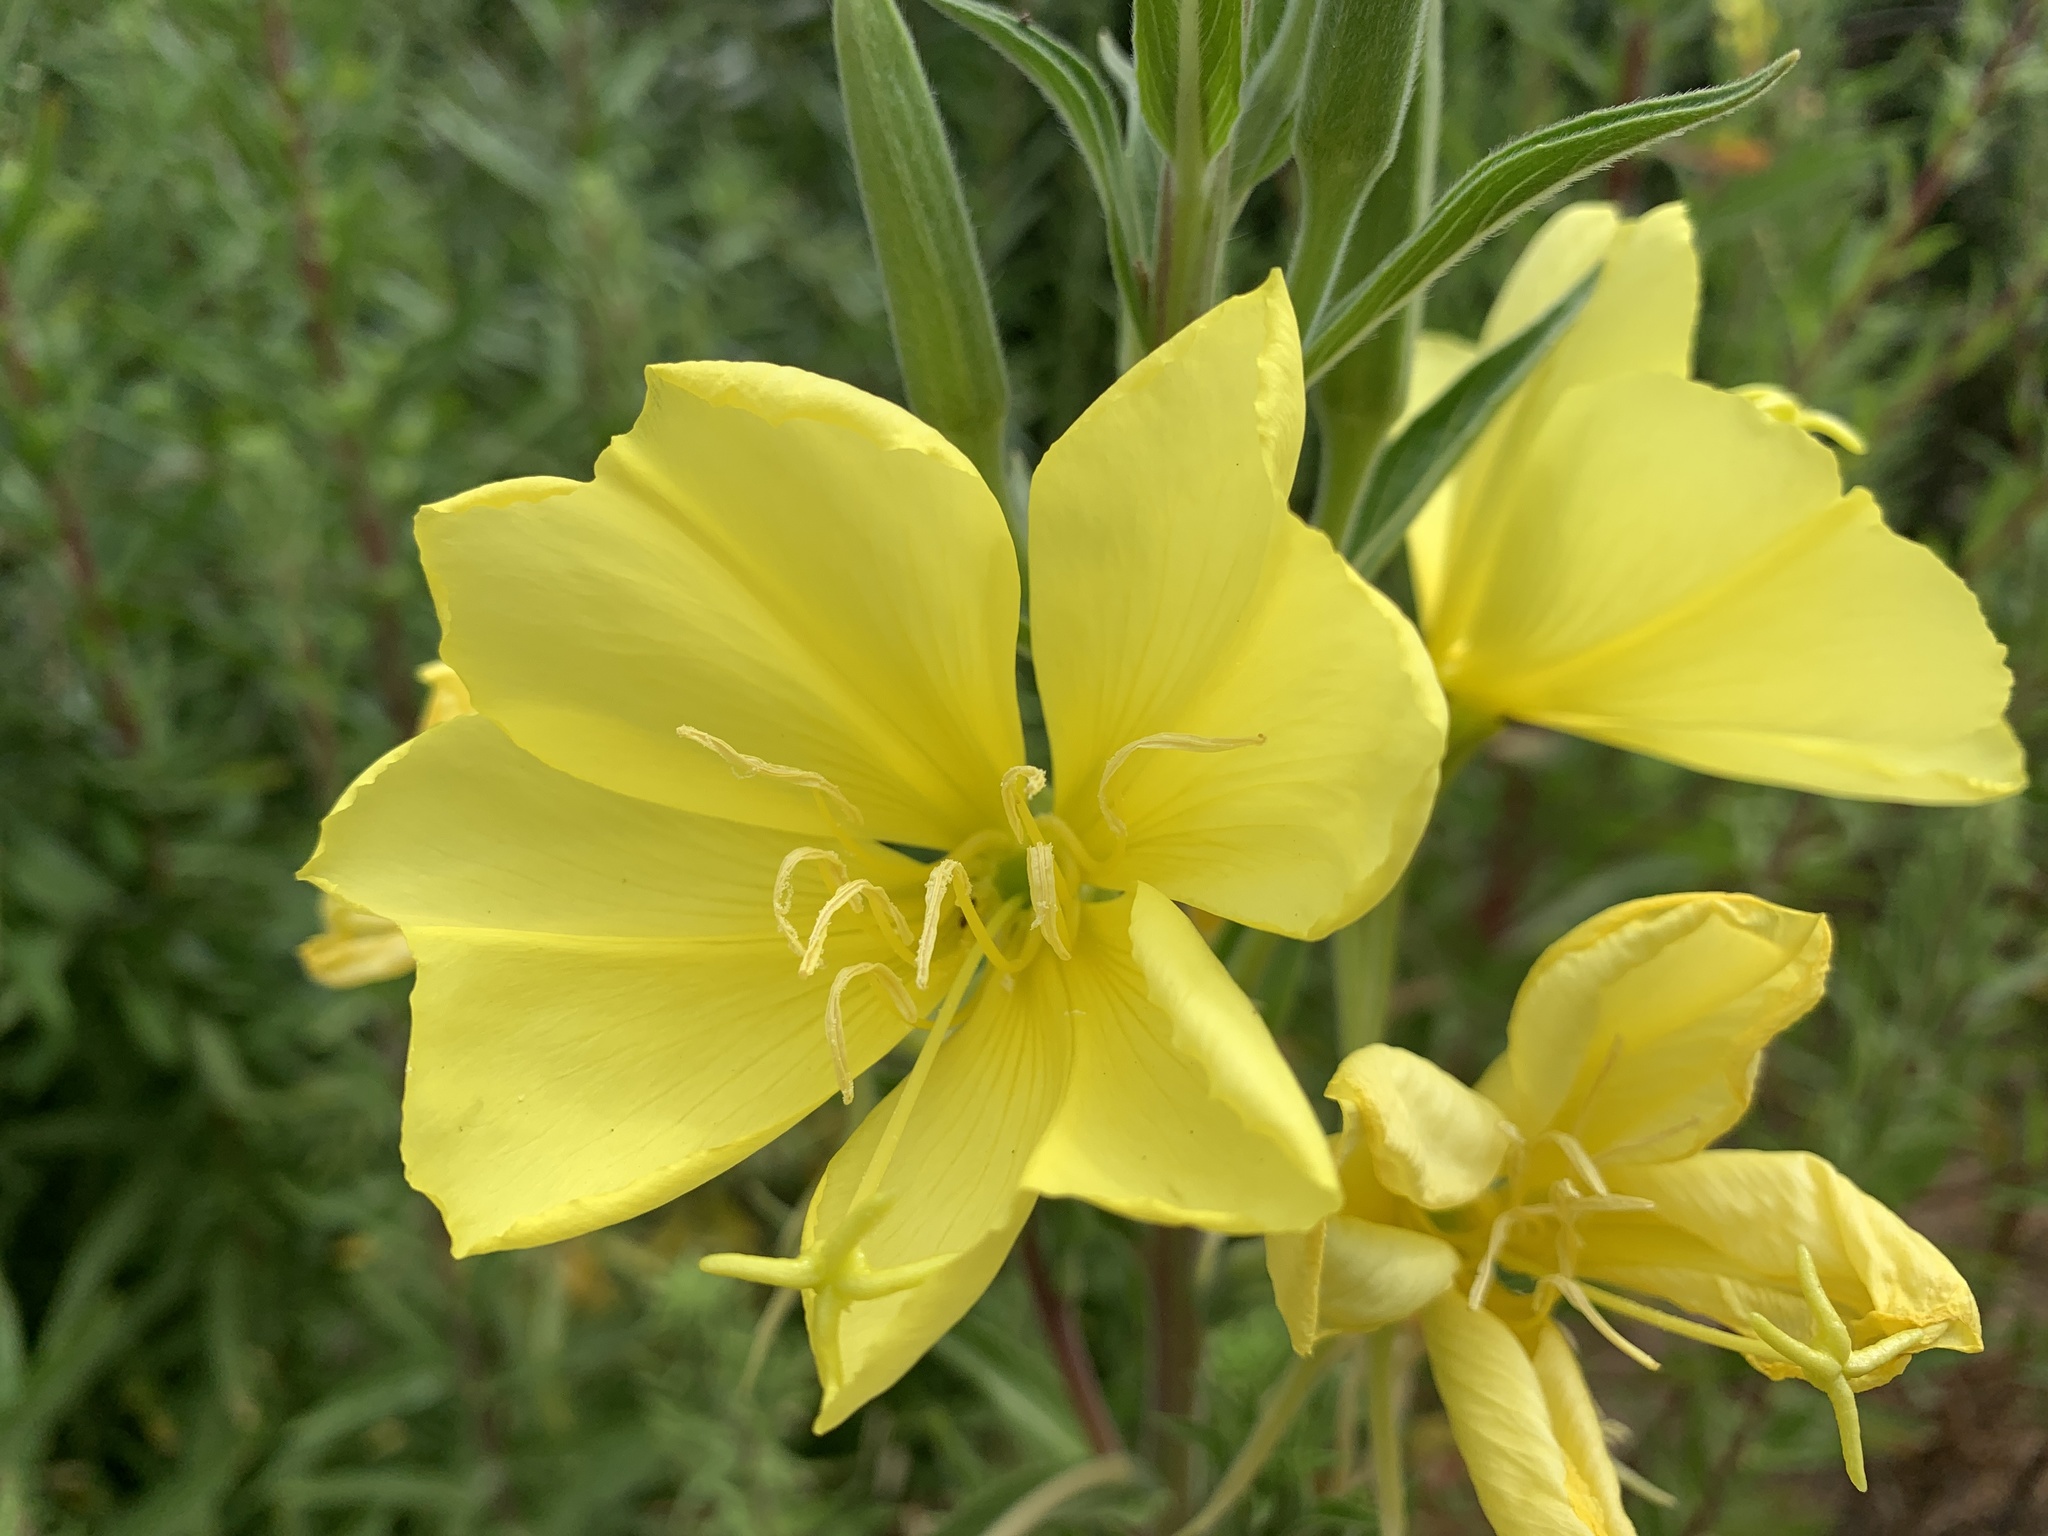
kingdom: Plantae
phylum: Tracheophyta
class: Magnoliopsida
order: Myrtales
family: Onagraceae
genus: Oenothera
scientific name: Oenothera elata
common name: Hooker's evening-primrose
